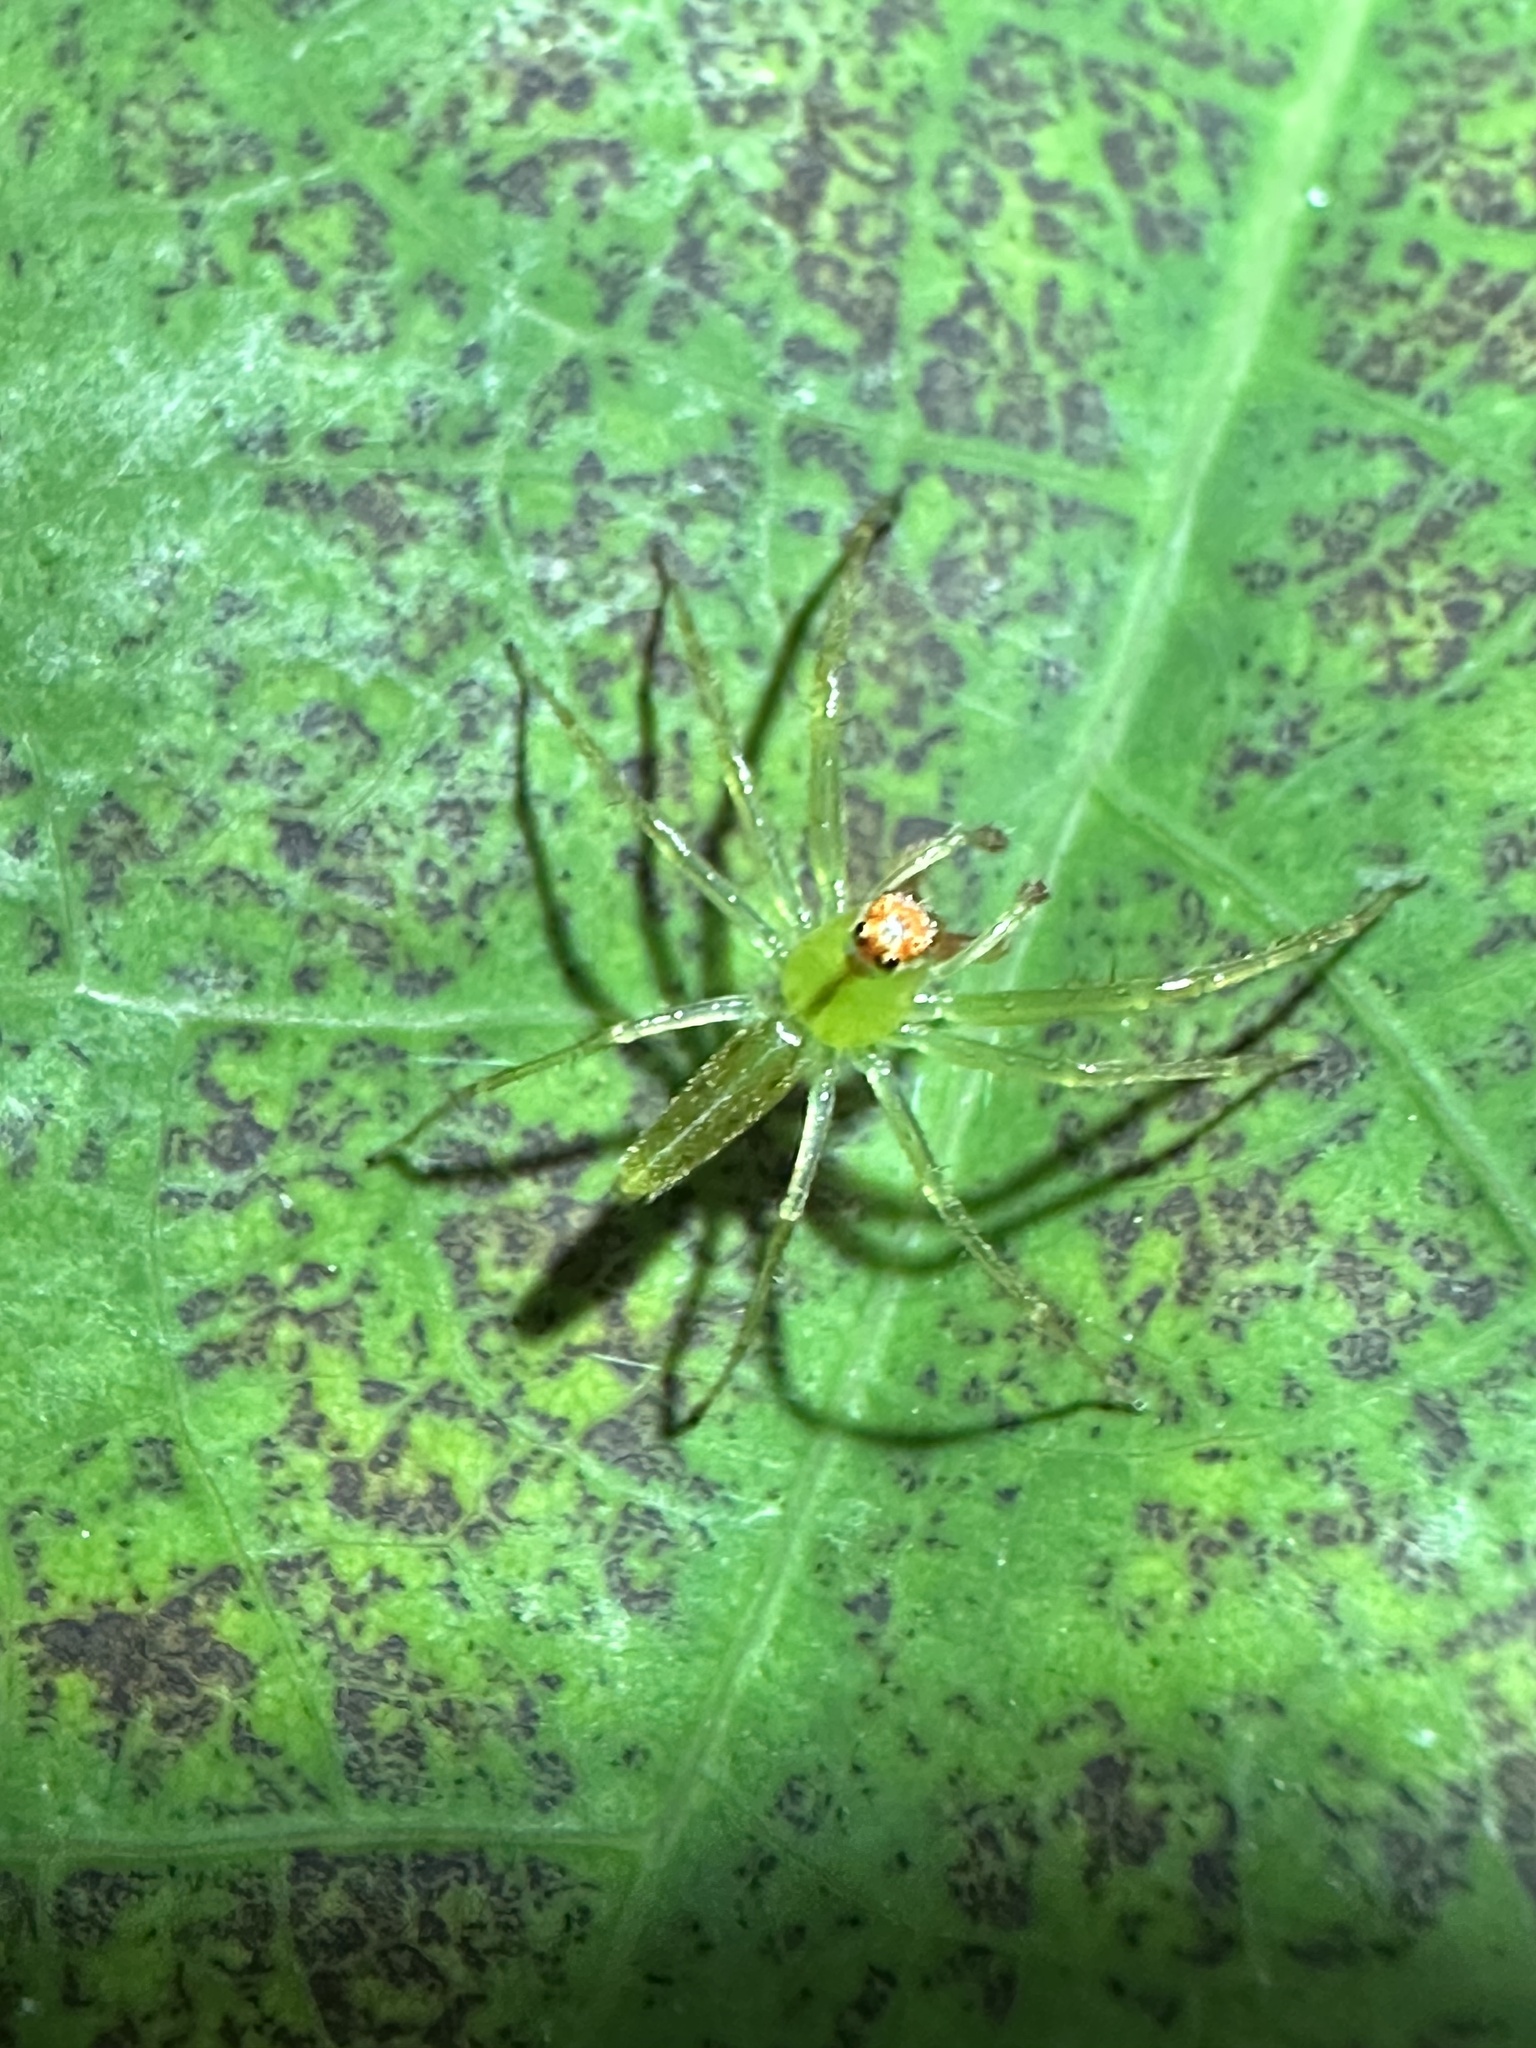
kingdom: Animalia
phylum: Arthropoda
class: Arachnida
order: Araneae
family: Salticidae
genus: Lyssomanes
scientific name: Lyssomanes viridis
